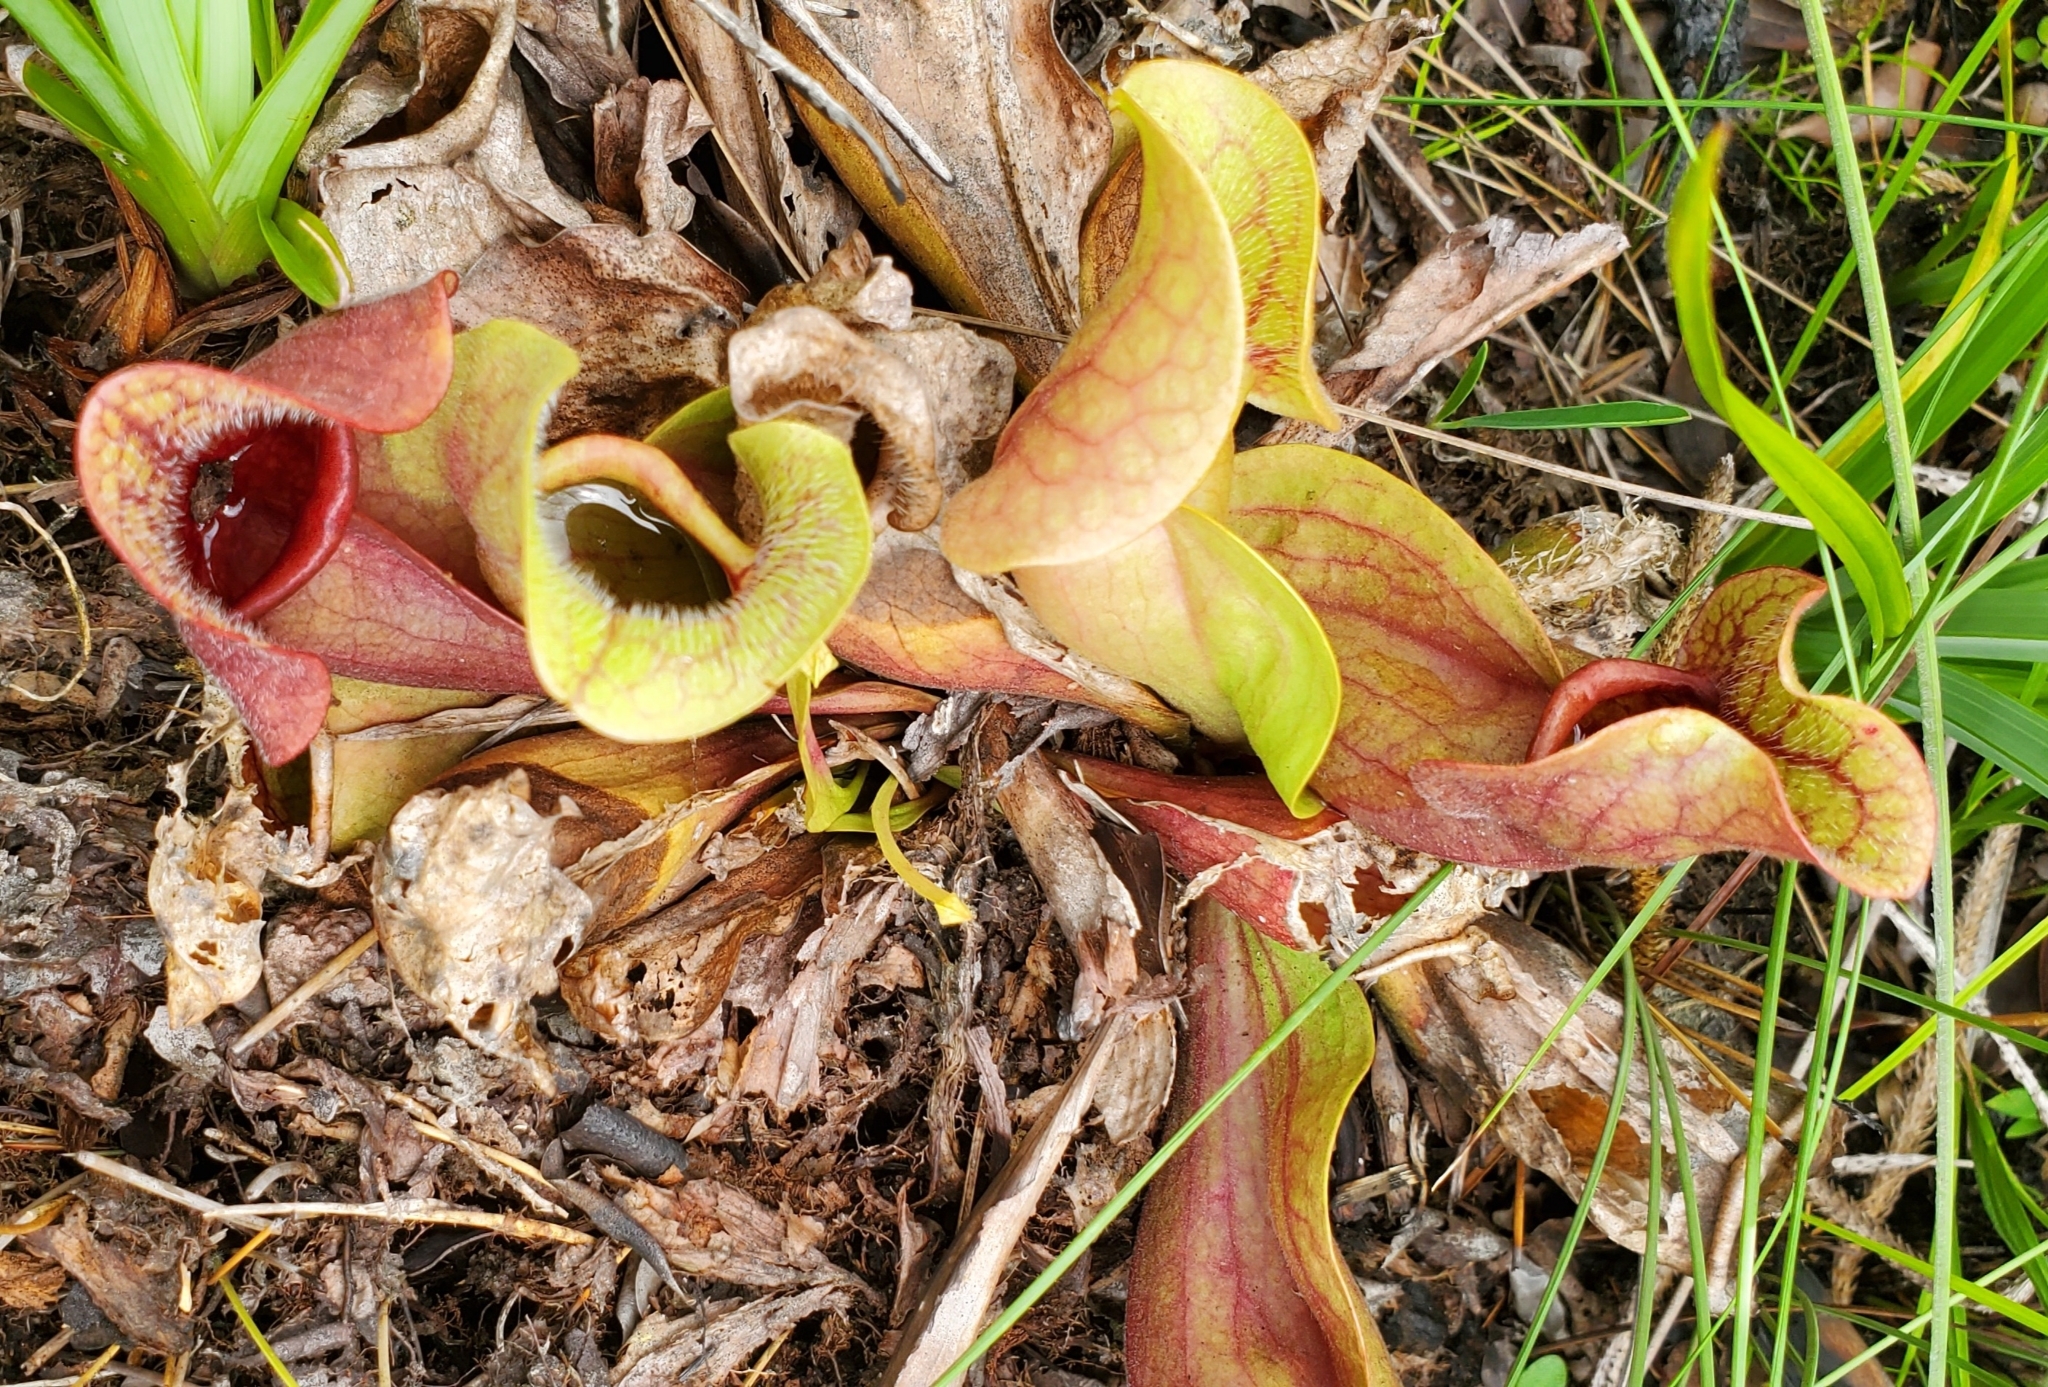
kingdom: Plantae
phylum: Tracheophyta
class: Magnoliopsida
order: Ericales
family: Sarraceniaceae
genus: Sarracenia
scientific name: Sarracenia rosea
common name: Pink pitcherplant
